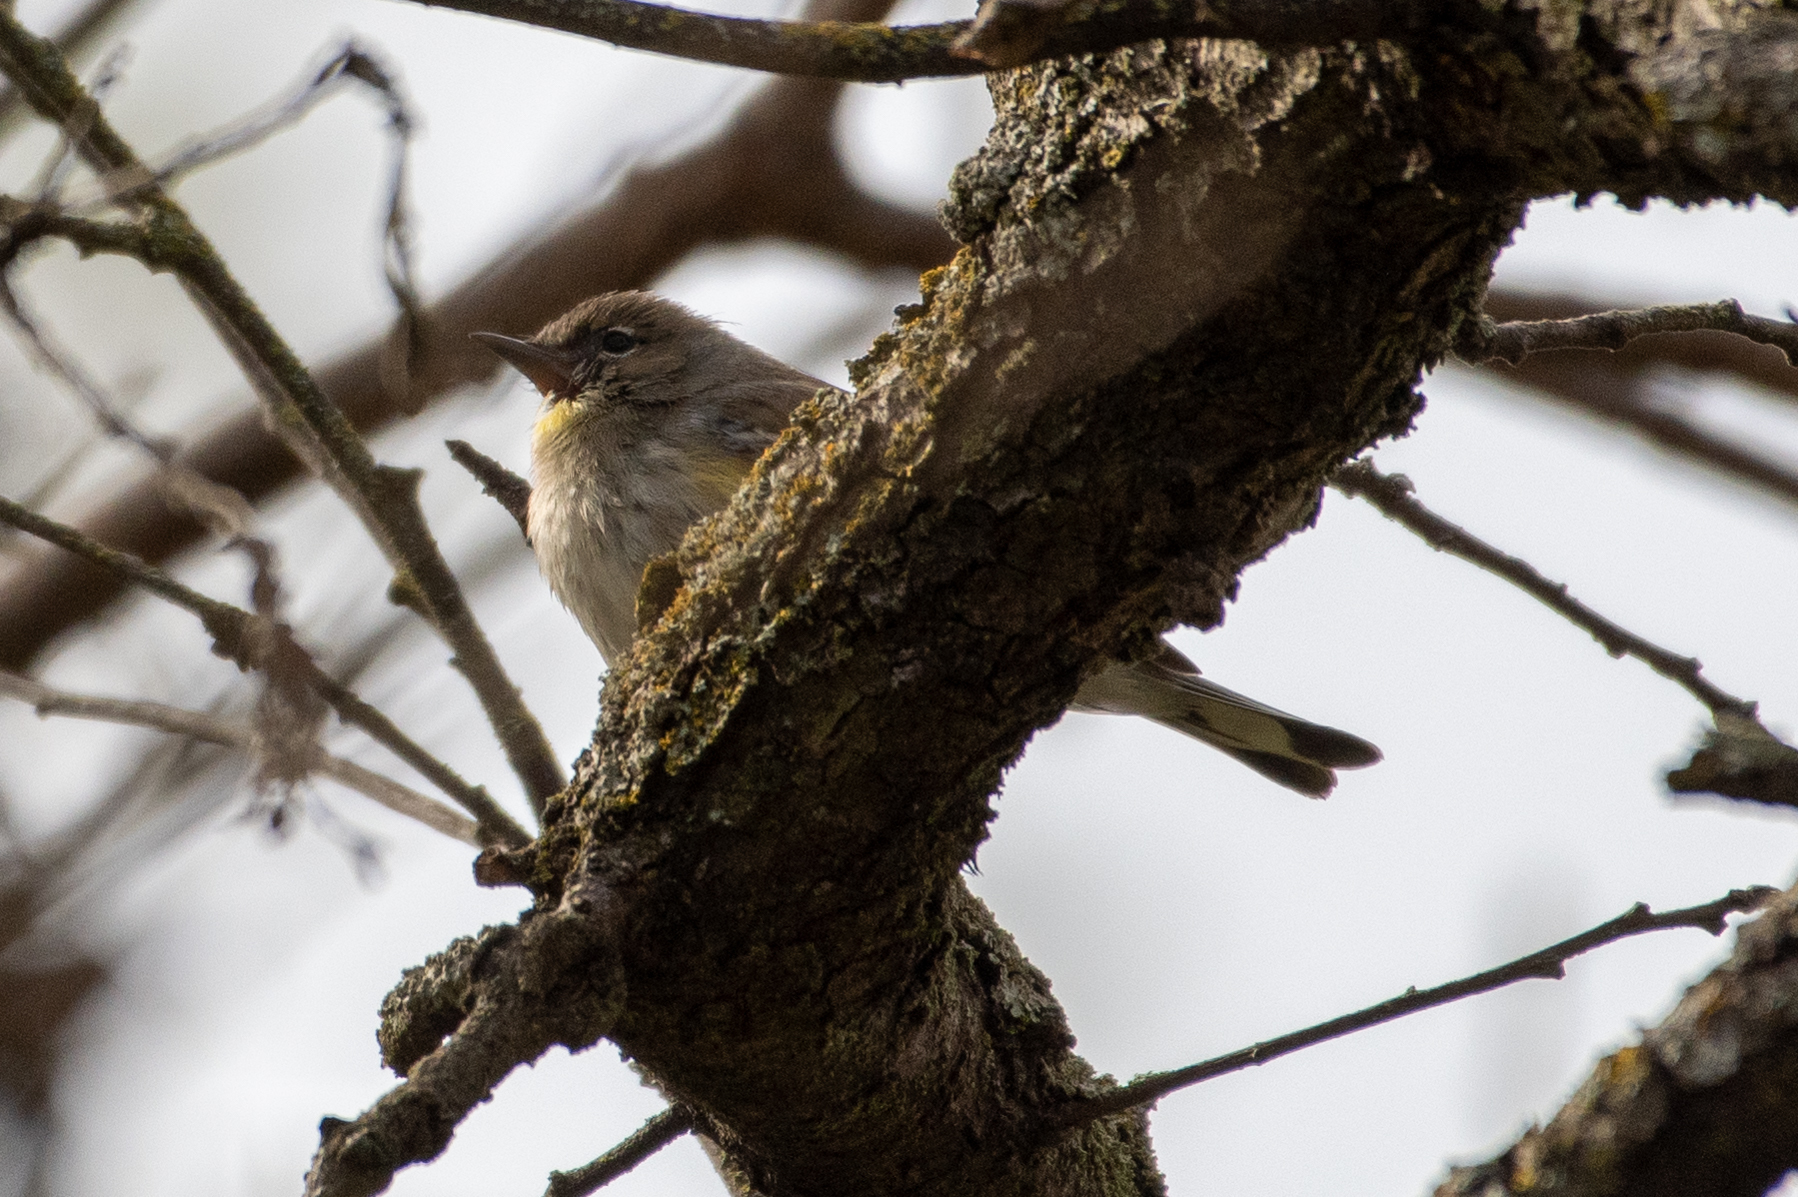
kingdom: Animalia
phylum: Chordata
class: Aves
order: Passeriformes
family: Parulidae
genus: Setophaga
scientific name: Setophaga coronata
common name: Myrtle warbler
